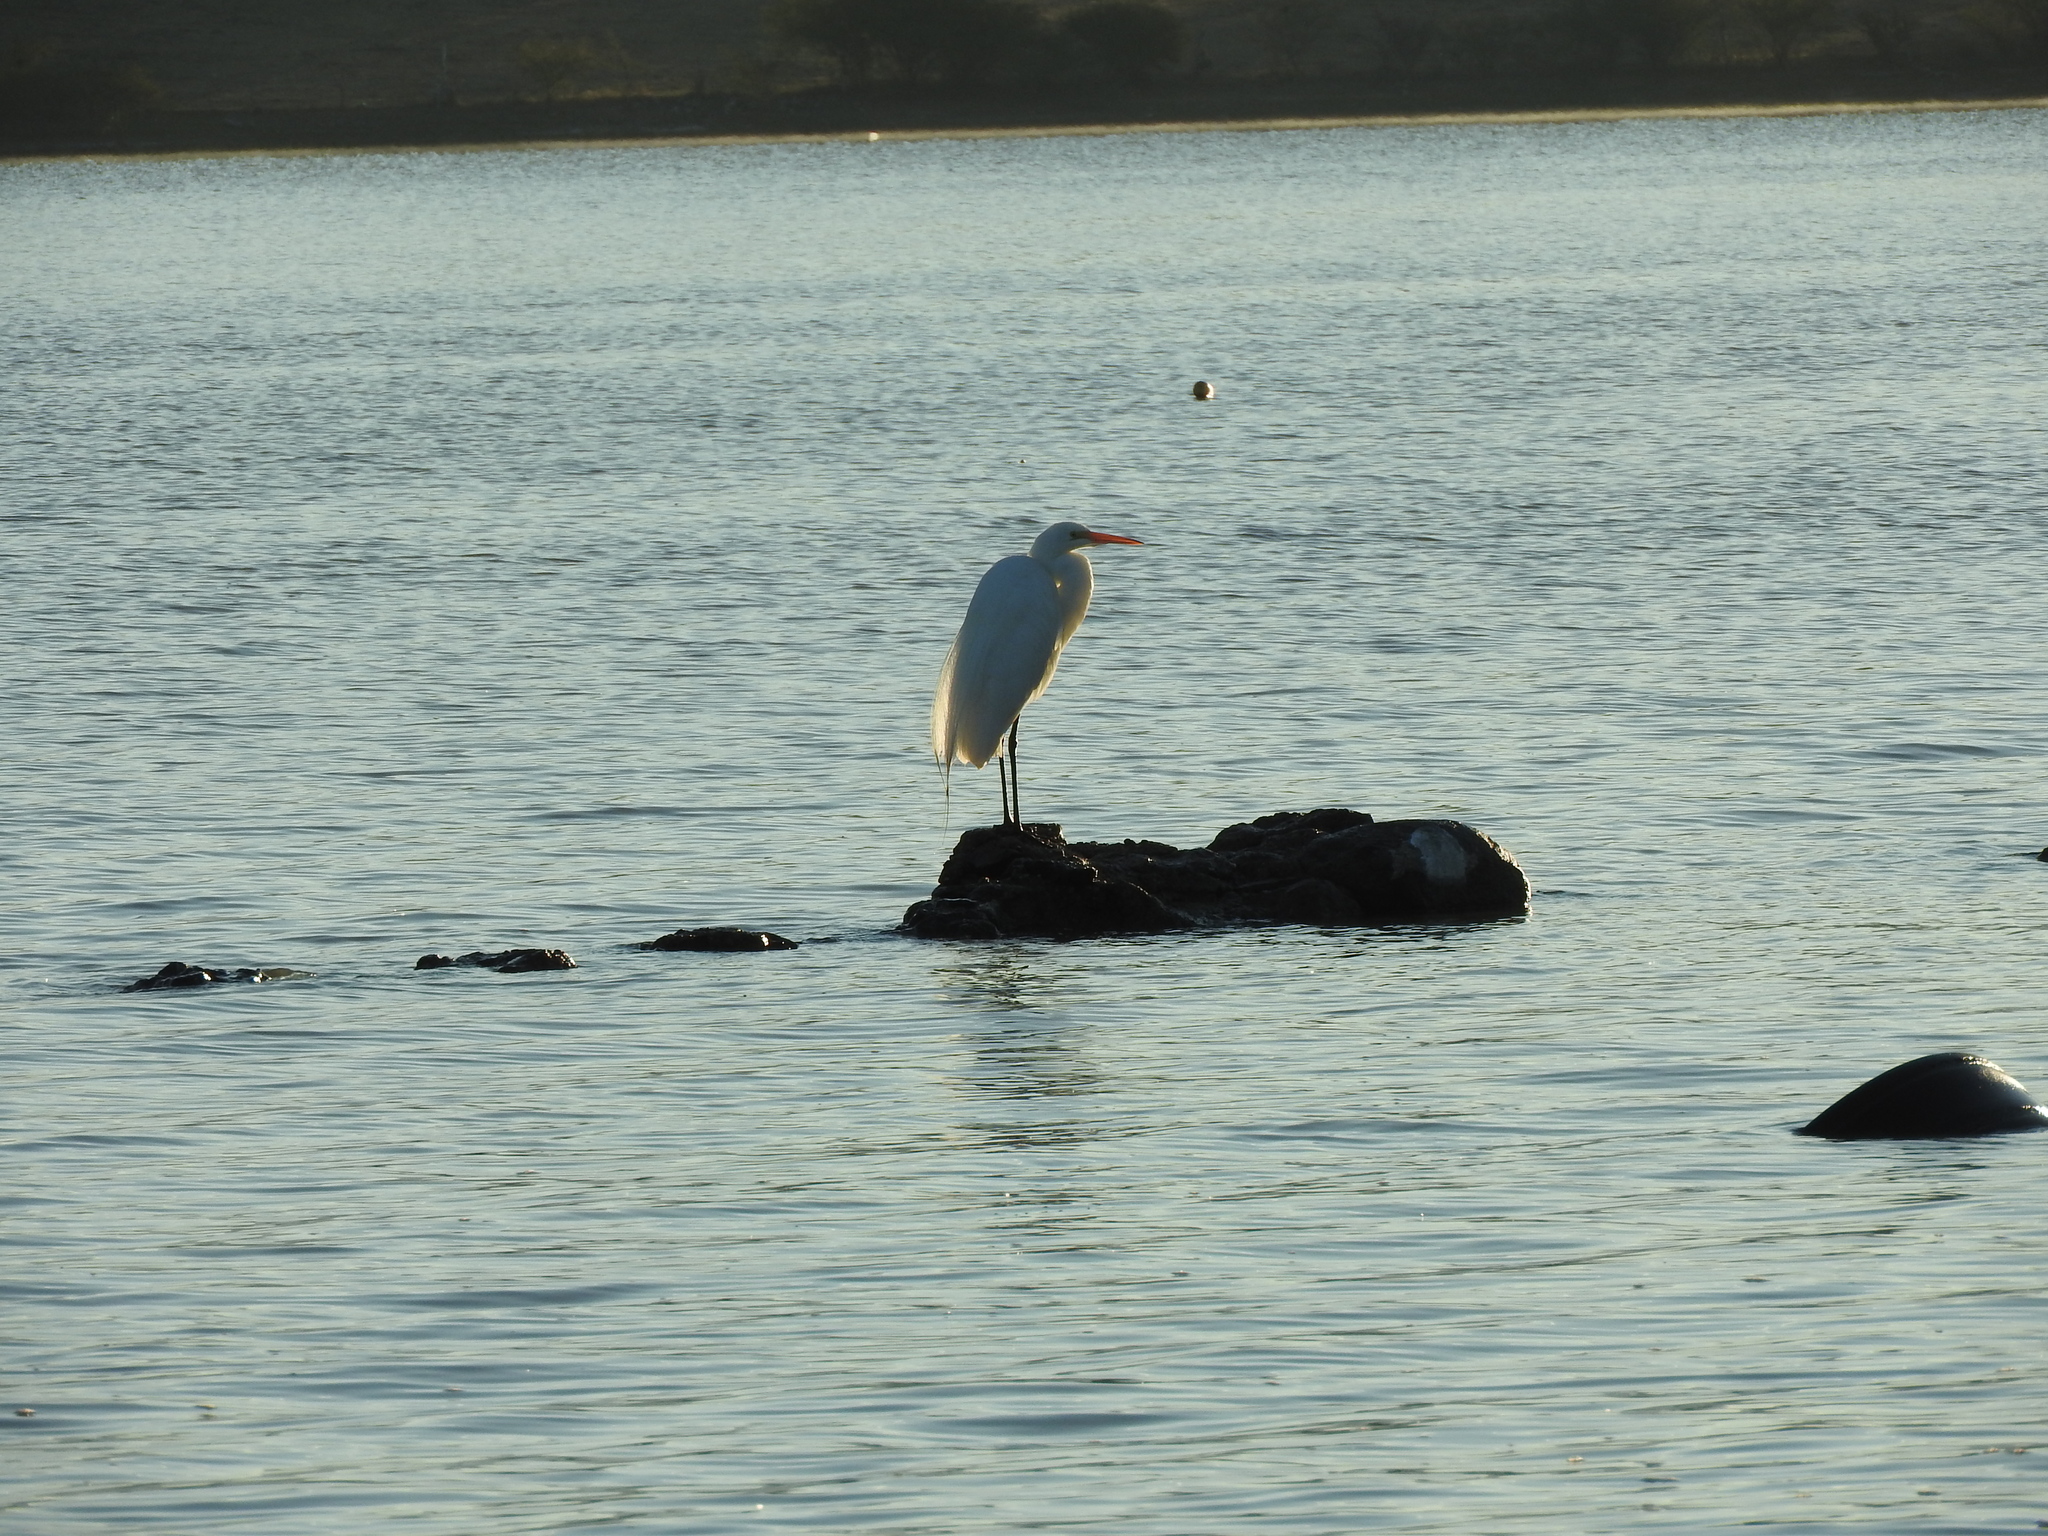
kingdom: Animalia
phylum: Chordata
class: Aves
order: Pelecaniformes
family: Ardeidae
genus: Ardea
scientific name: Ardea alba
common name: Great egret
